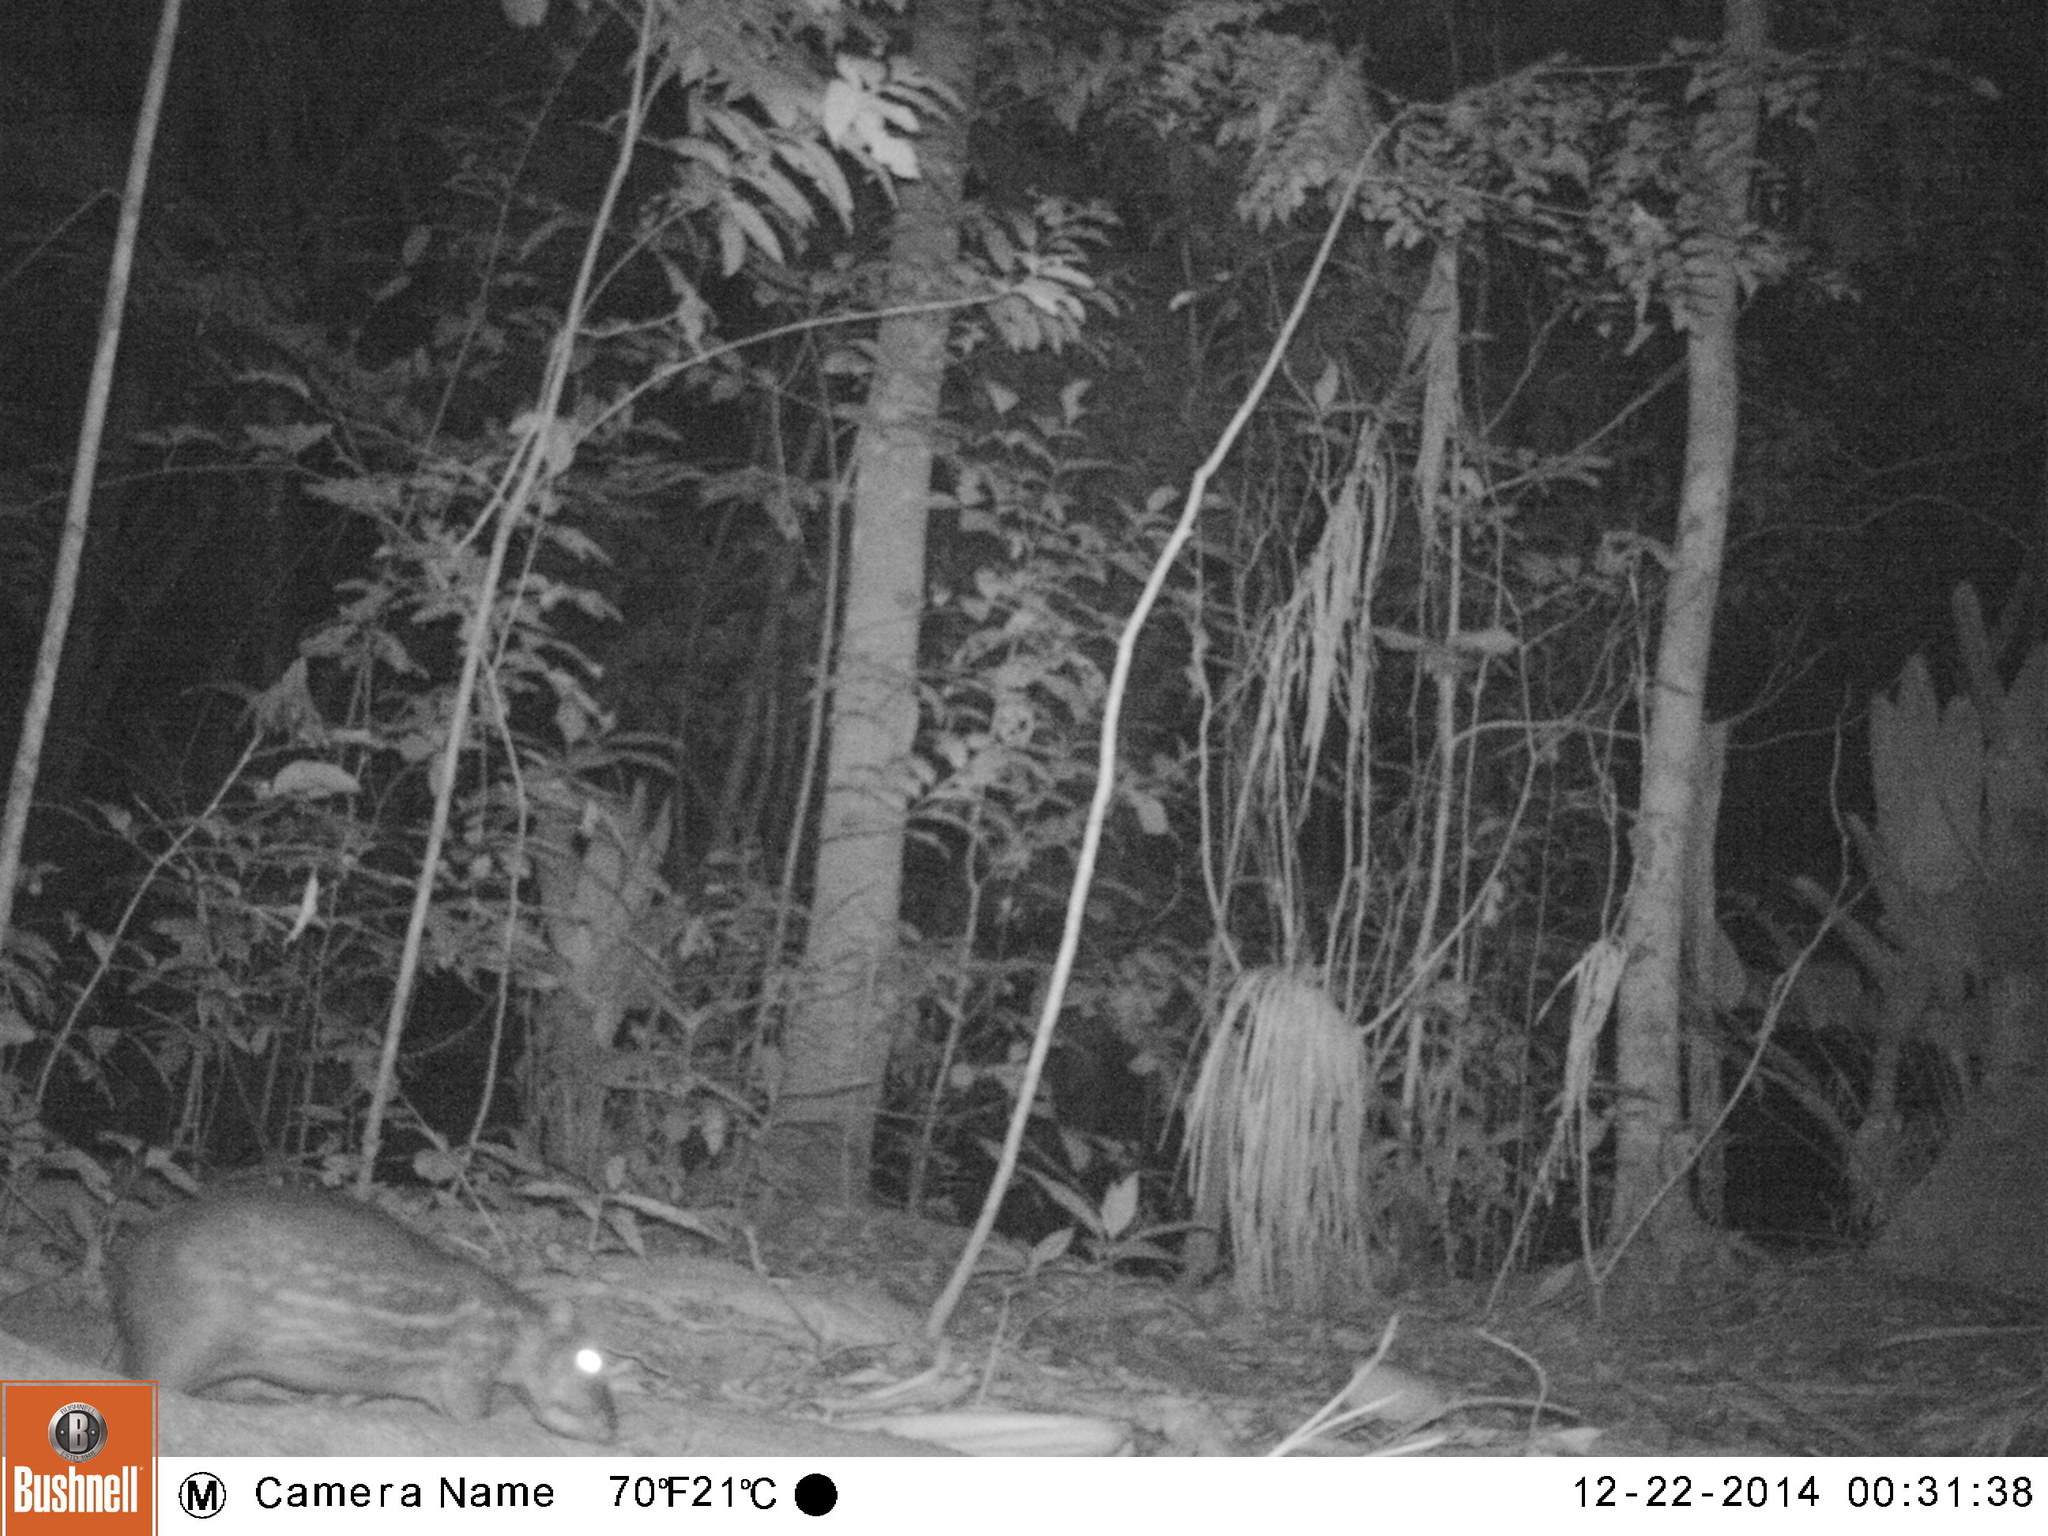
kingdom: Animalia
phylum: Chordata
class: Mammalia
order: Rodentia
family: Cuniculidae
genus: Cuniculus
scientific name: Cuniculus paca
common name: Lowland paca
